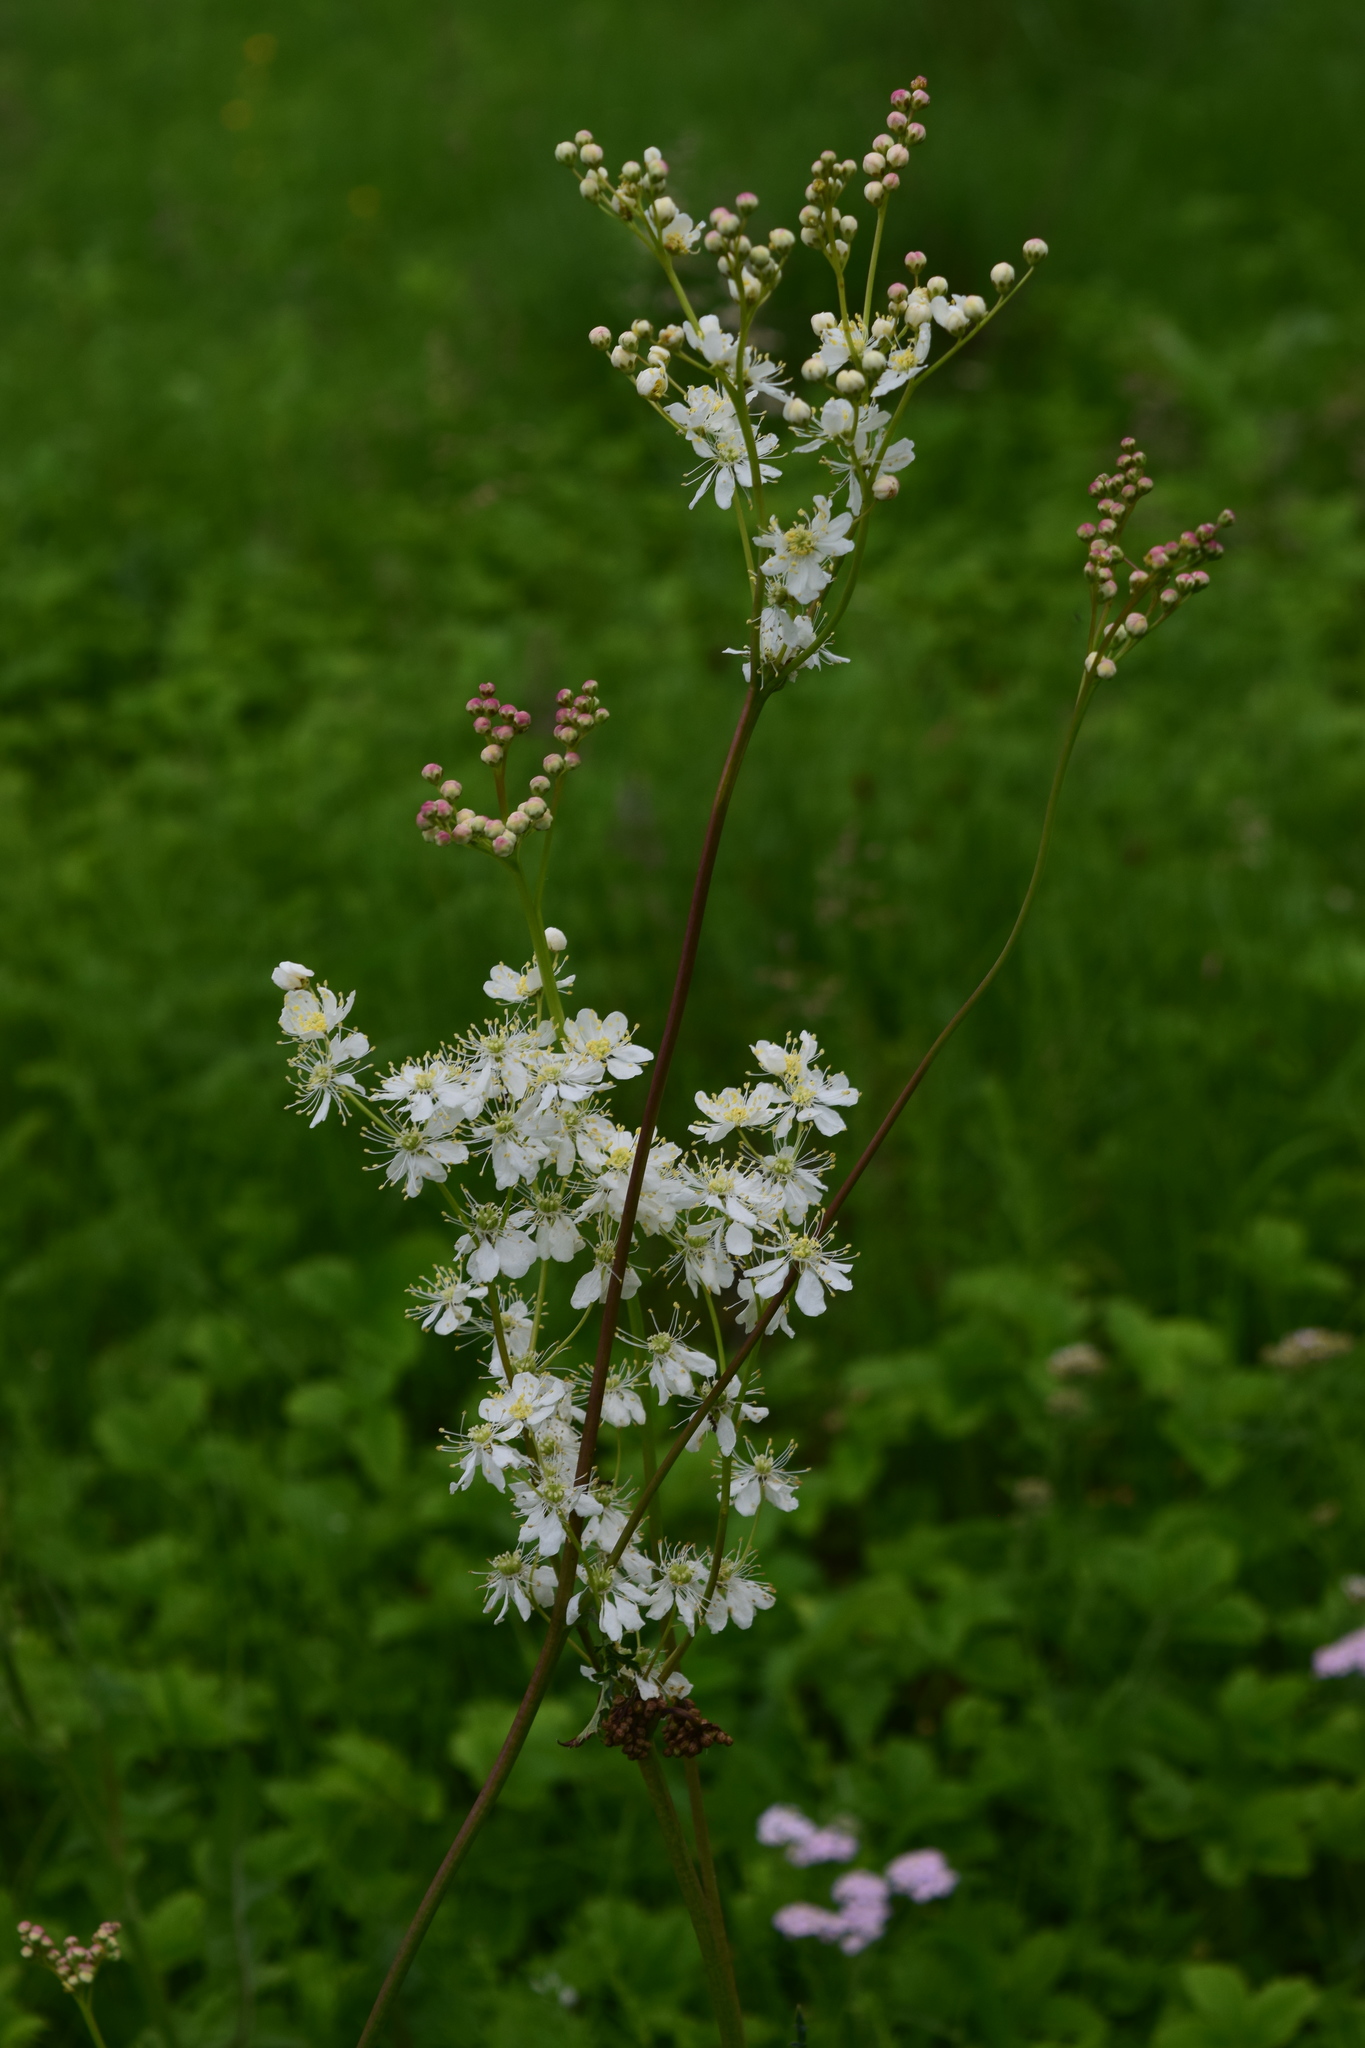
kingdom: Plantae
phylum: Tracheophyta
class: Magnoliopsida
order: Rosales
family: Rosaceae
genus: Filipendula
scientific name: Filipendula vulgaris
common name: Dropwort
